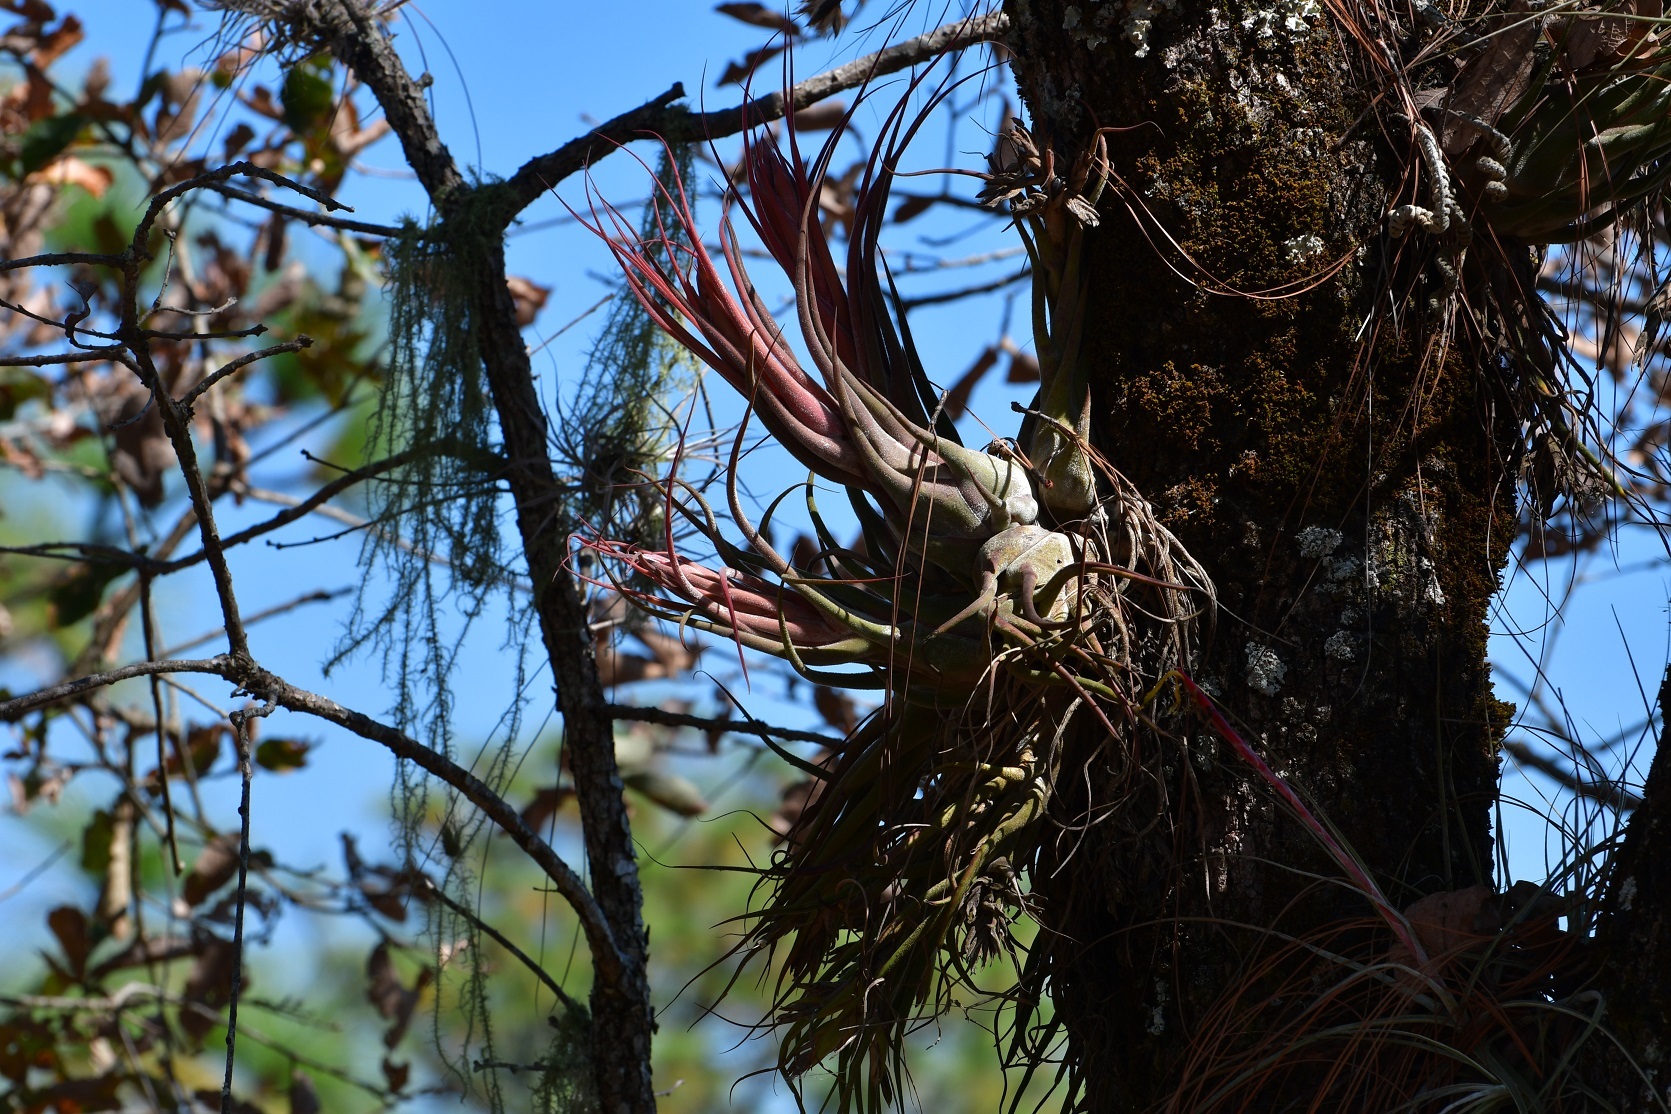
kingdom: Plantae
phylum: Tracheophyta
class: Liliopsida
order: Poales
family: Bromeliaceae
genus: Tillandsia
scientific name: Tillandsia seleriana
